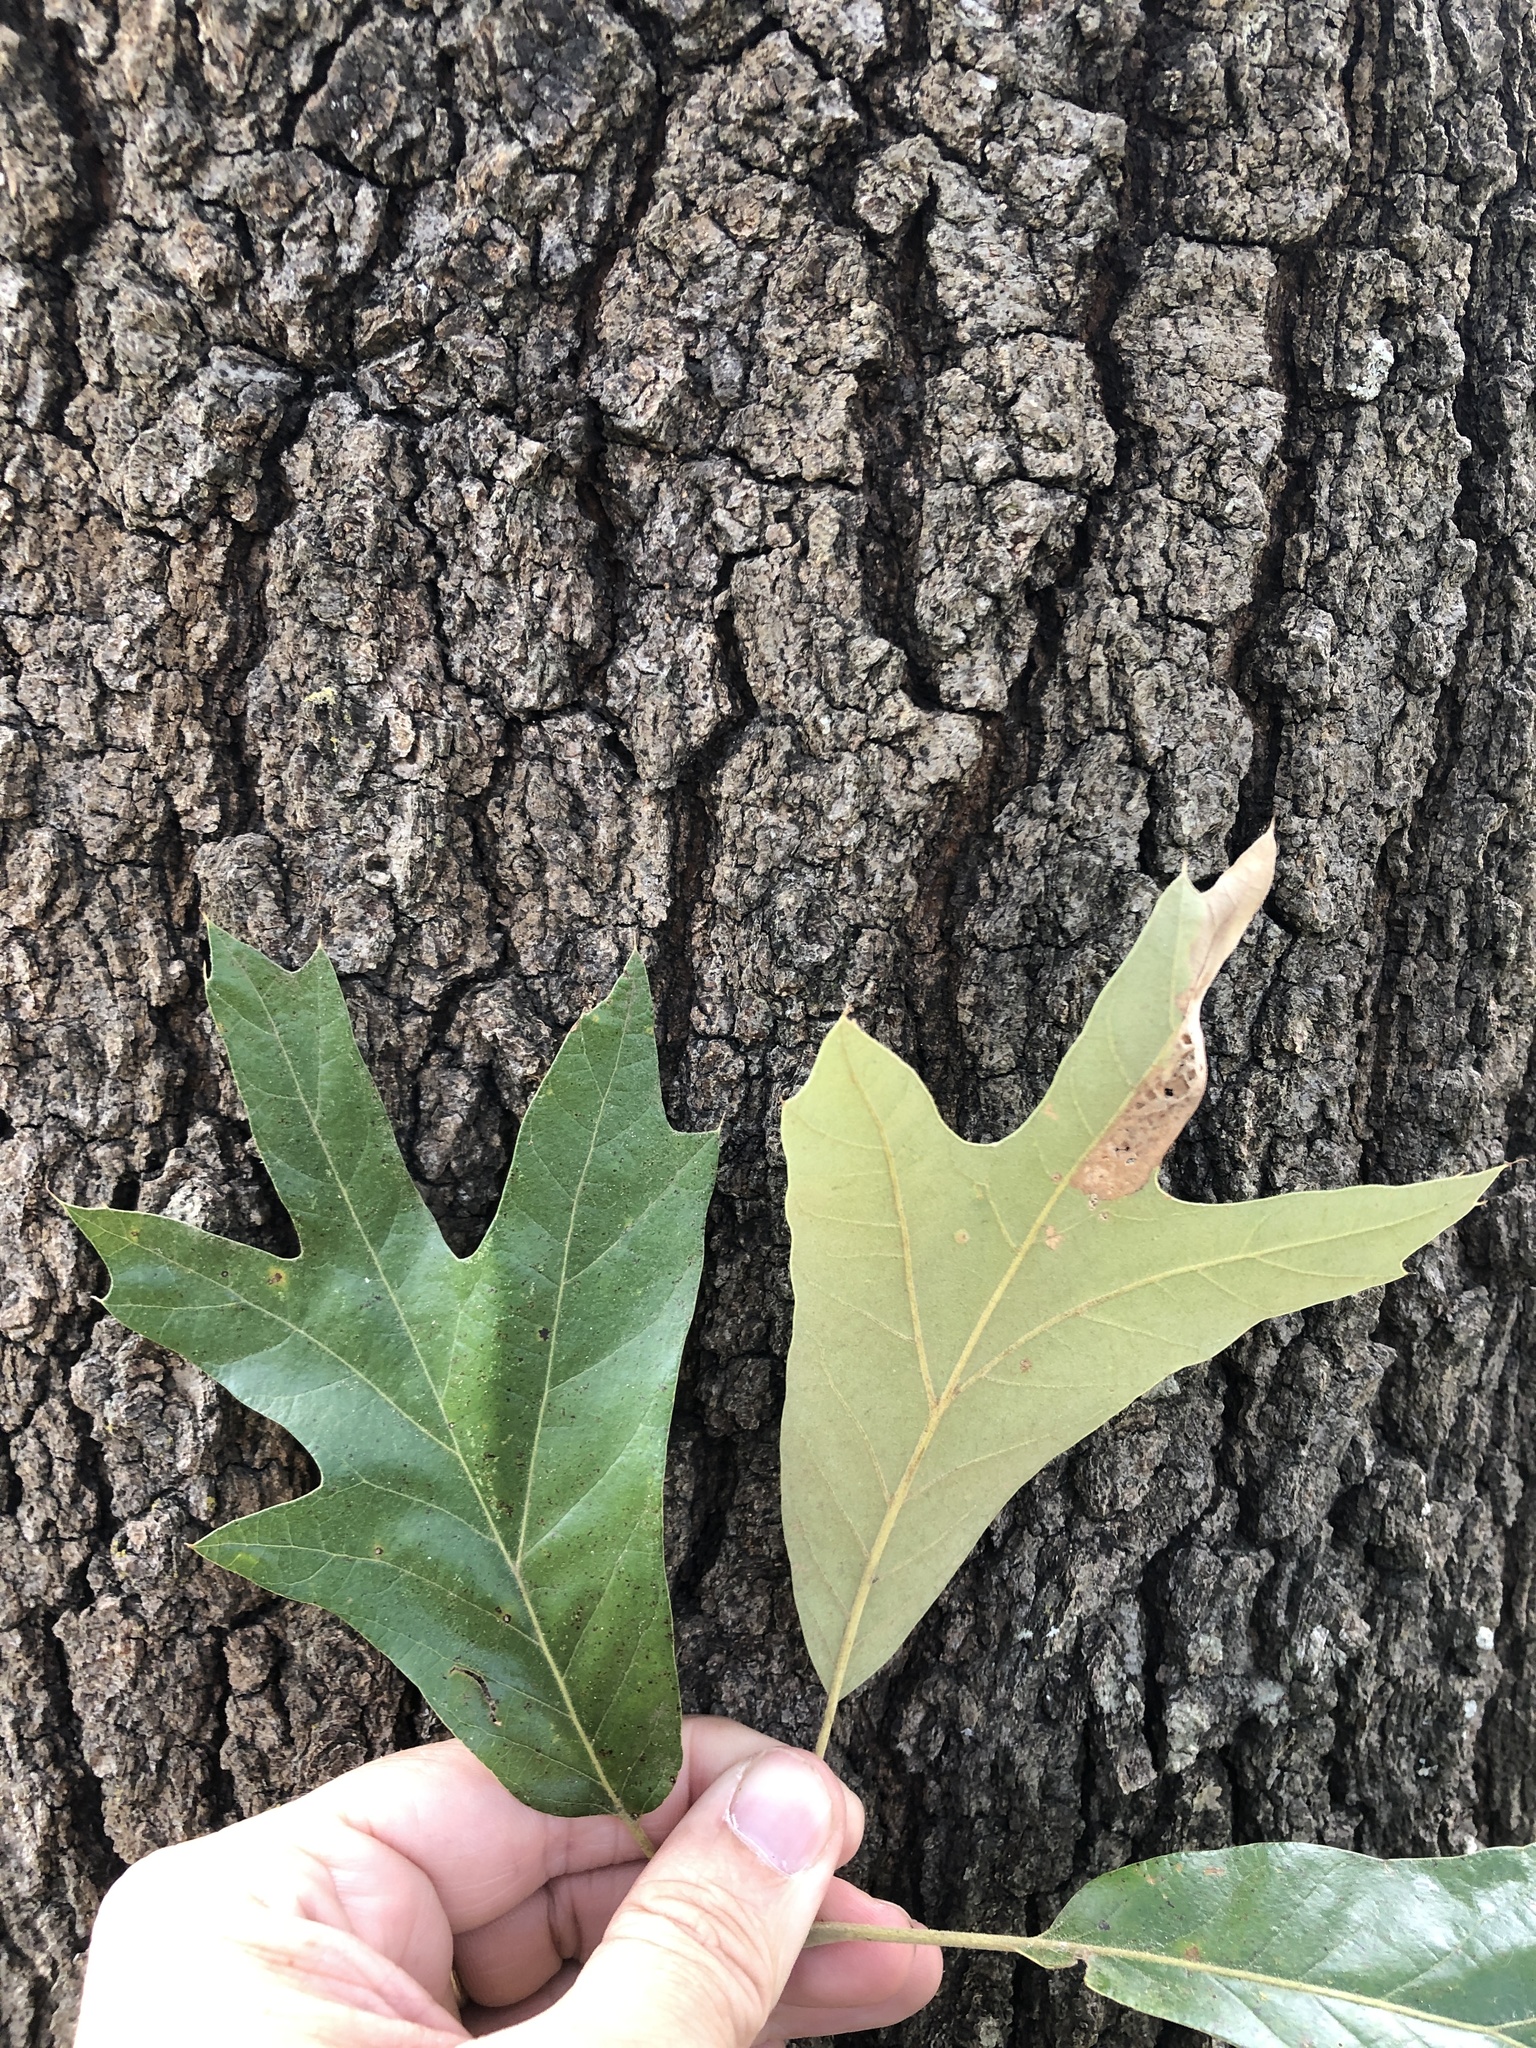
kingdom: Plantae
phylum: Tracheophyta
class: Magnoliopsida
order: Fagales
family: Fagaceae
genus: Quercus
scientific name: Quercus falcata
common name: Southern red oak
